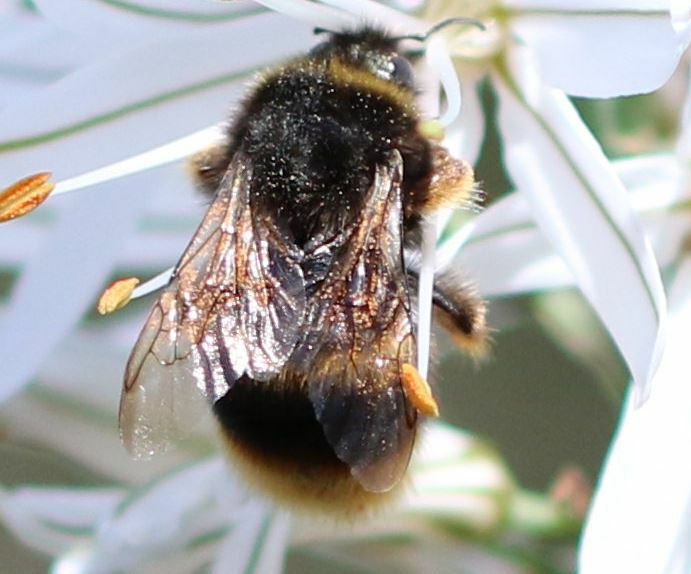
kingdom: Animalia
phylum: Arthropoda
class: Insecta
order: Hymenoptera
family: Apidae
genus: Bombus
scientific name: Bombus terrestris
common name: Buff-tailed bumblebee
